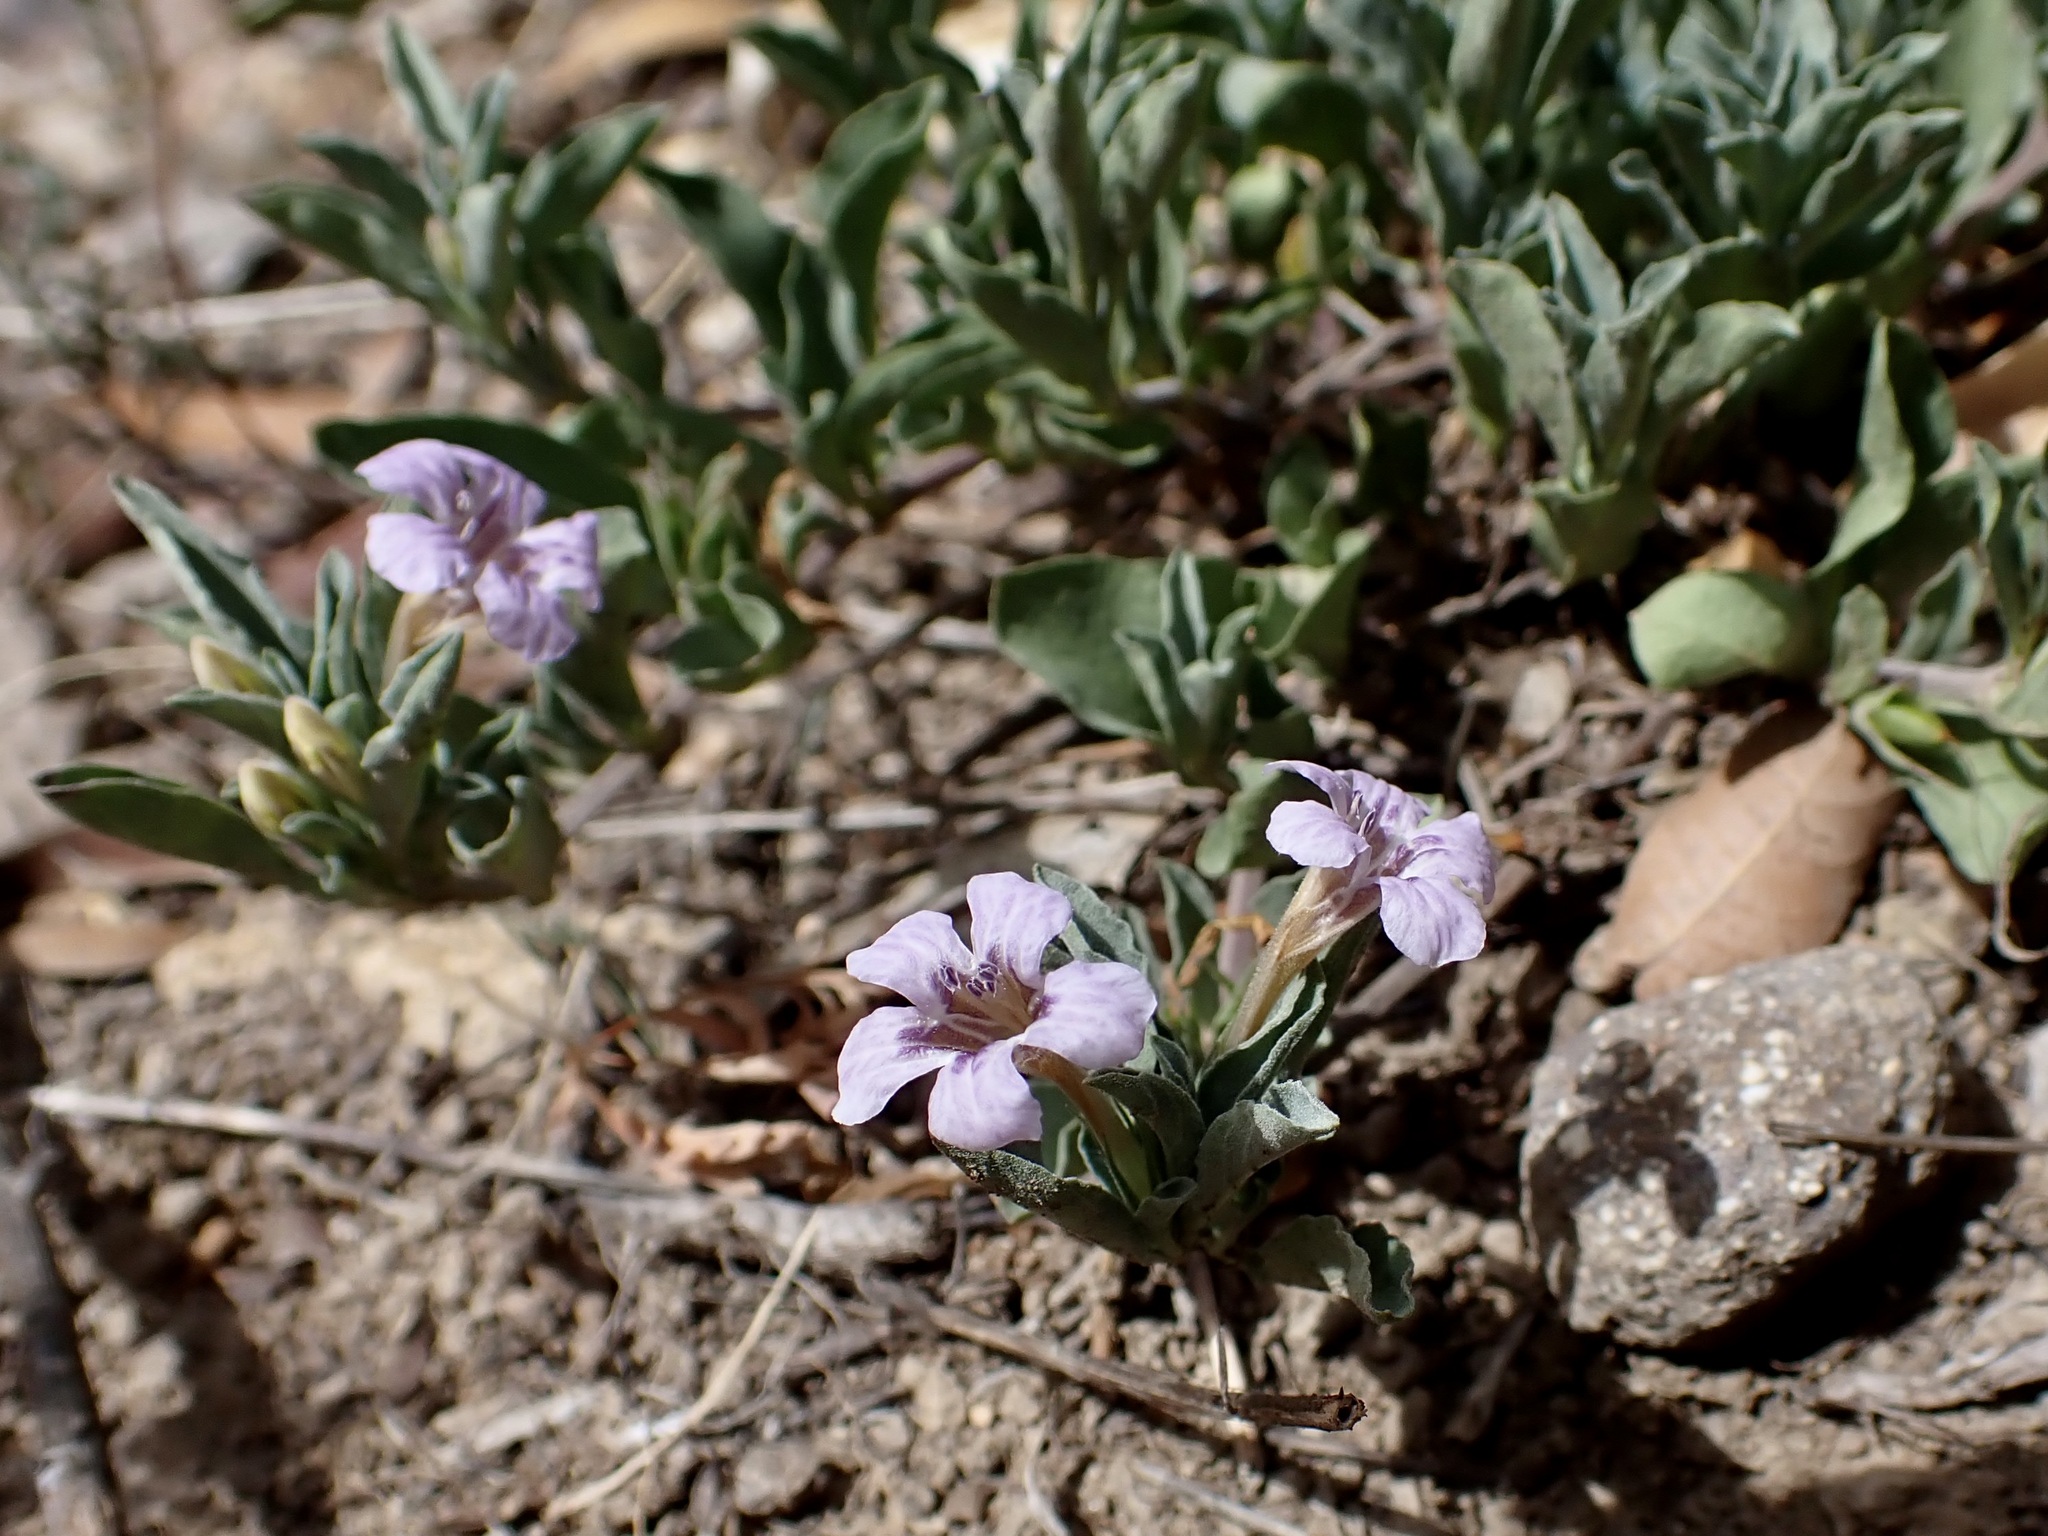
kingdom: Plantae
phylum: Tracheophyta
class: Magnoliopsida
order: Lamiales
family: Acanthaceae
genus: Dyschoriste
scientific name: Dyschoriste decumbens
